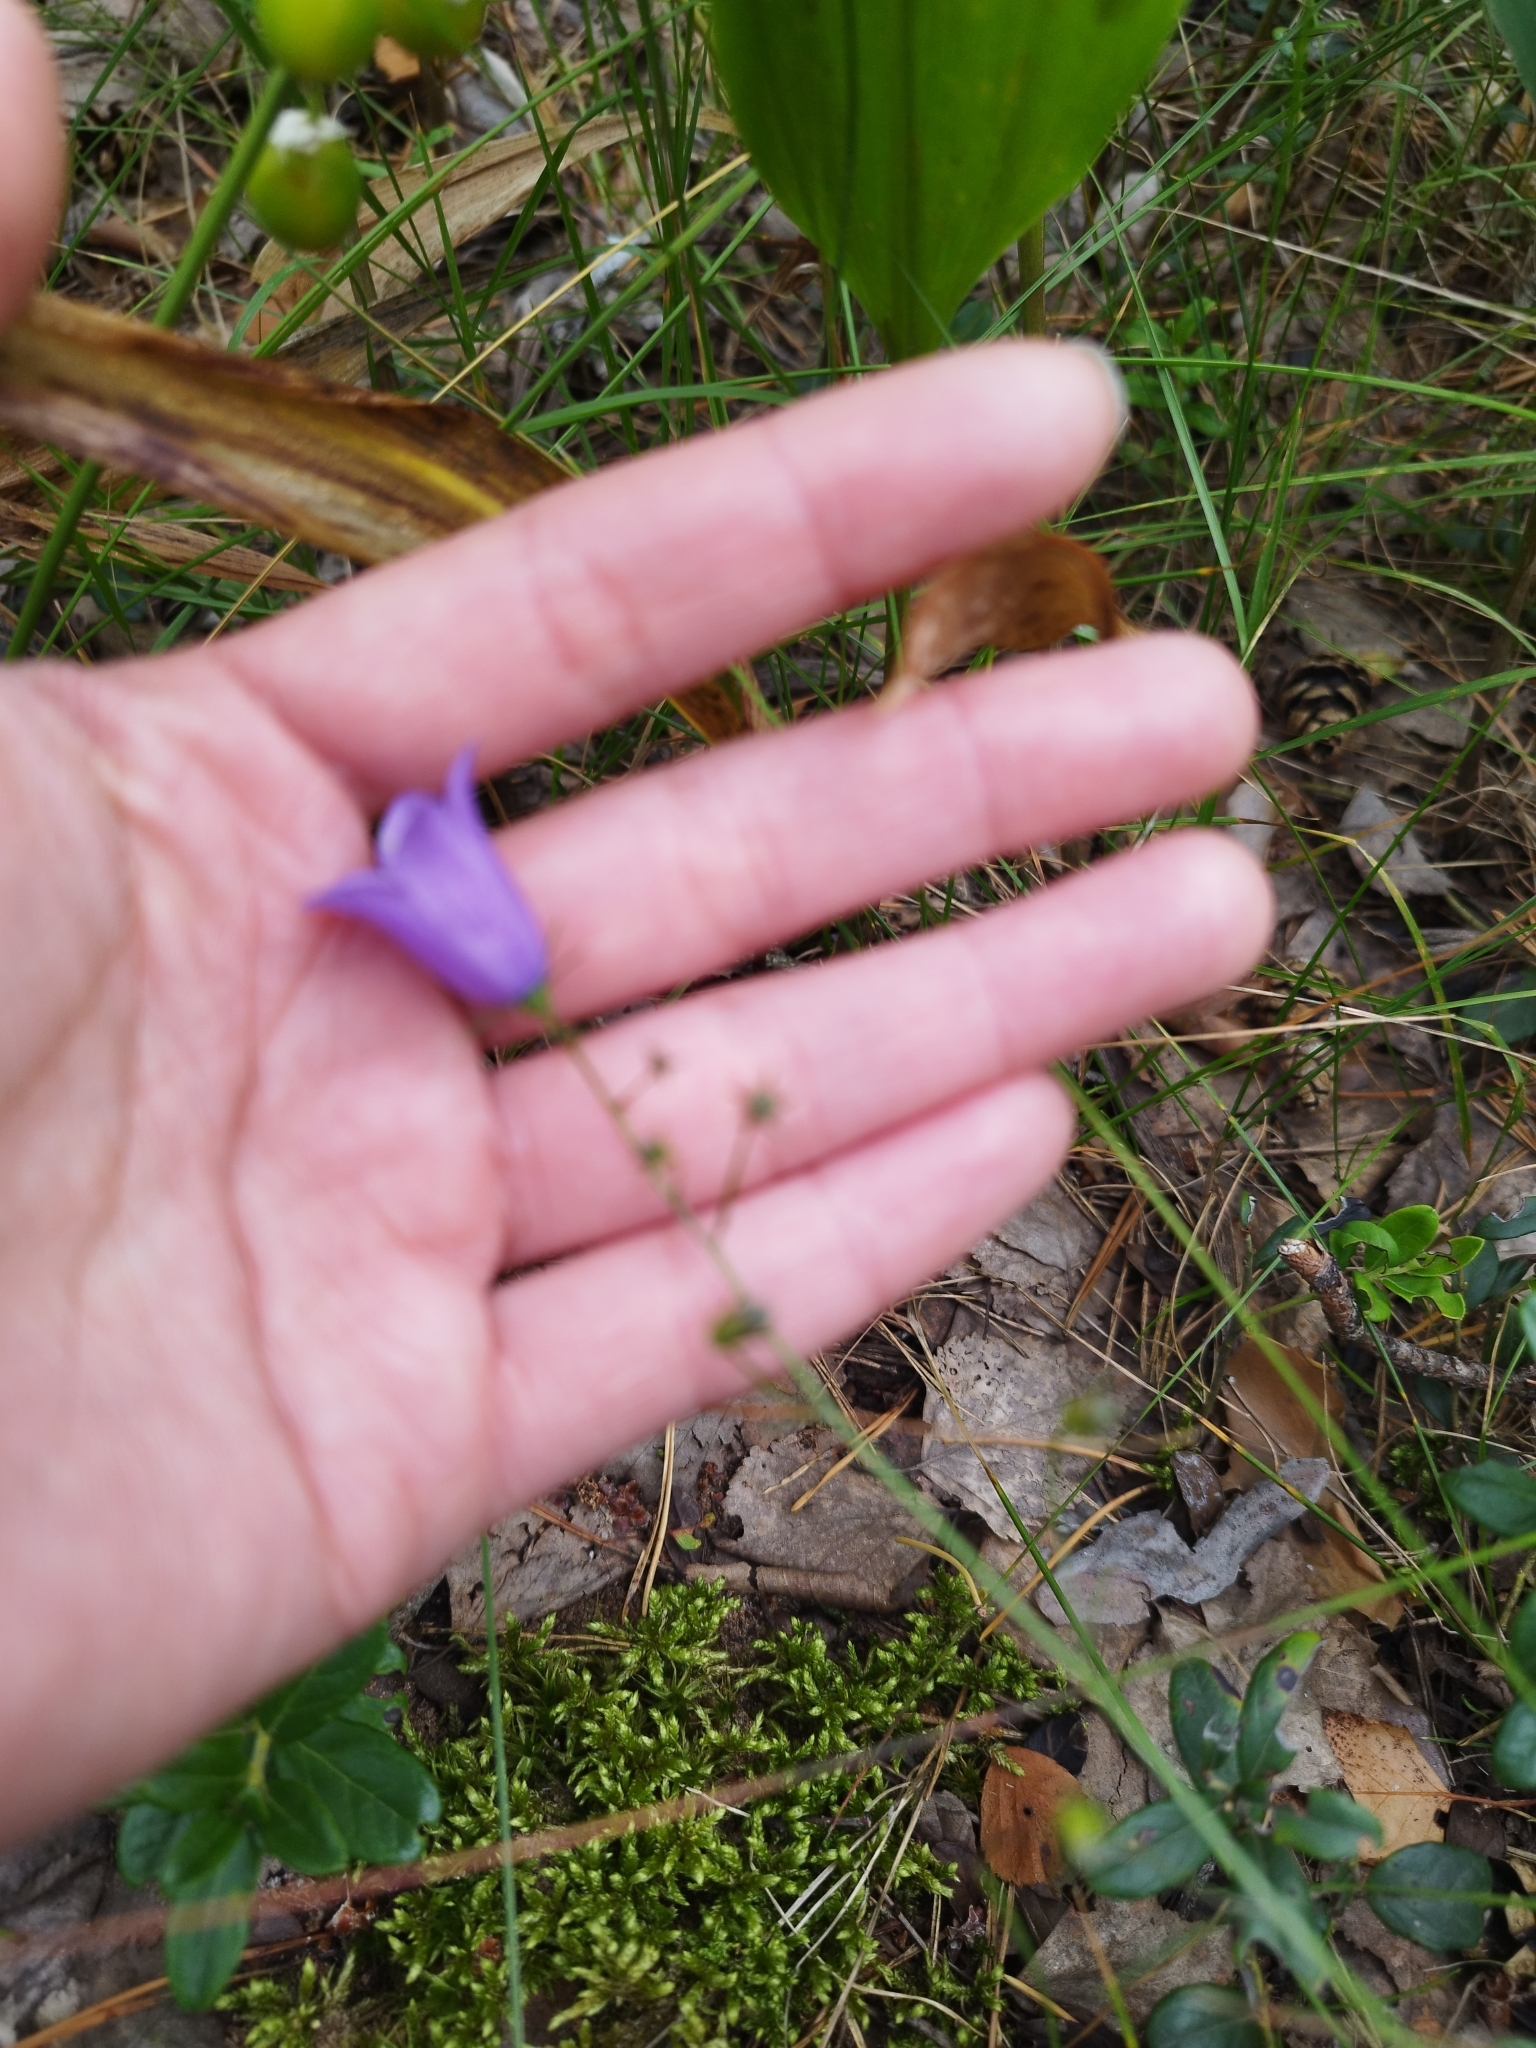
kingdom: Plantae
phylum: Tracheophyta
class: Magnoliopsida
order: Asterales
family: Campanulaceae
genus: Campanula
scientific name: Campanula rotundifolia
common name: Harebell
